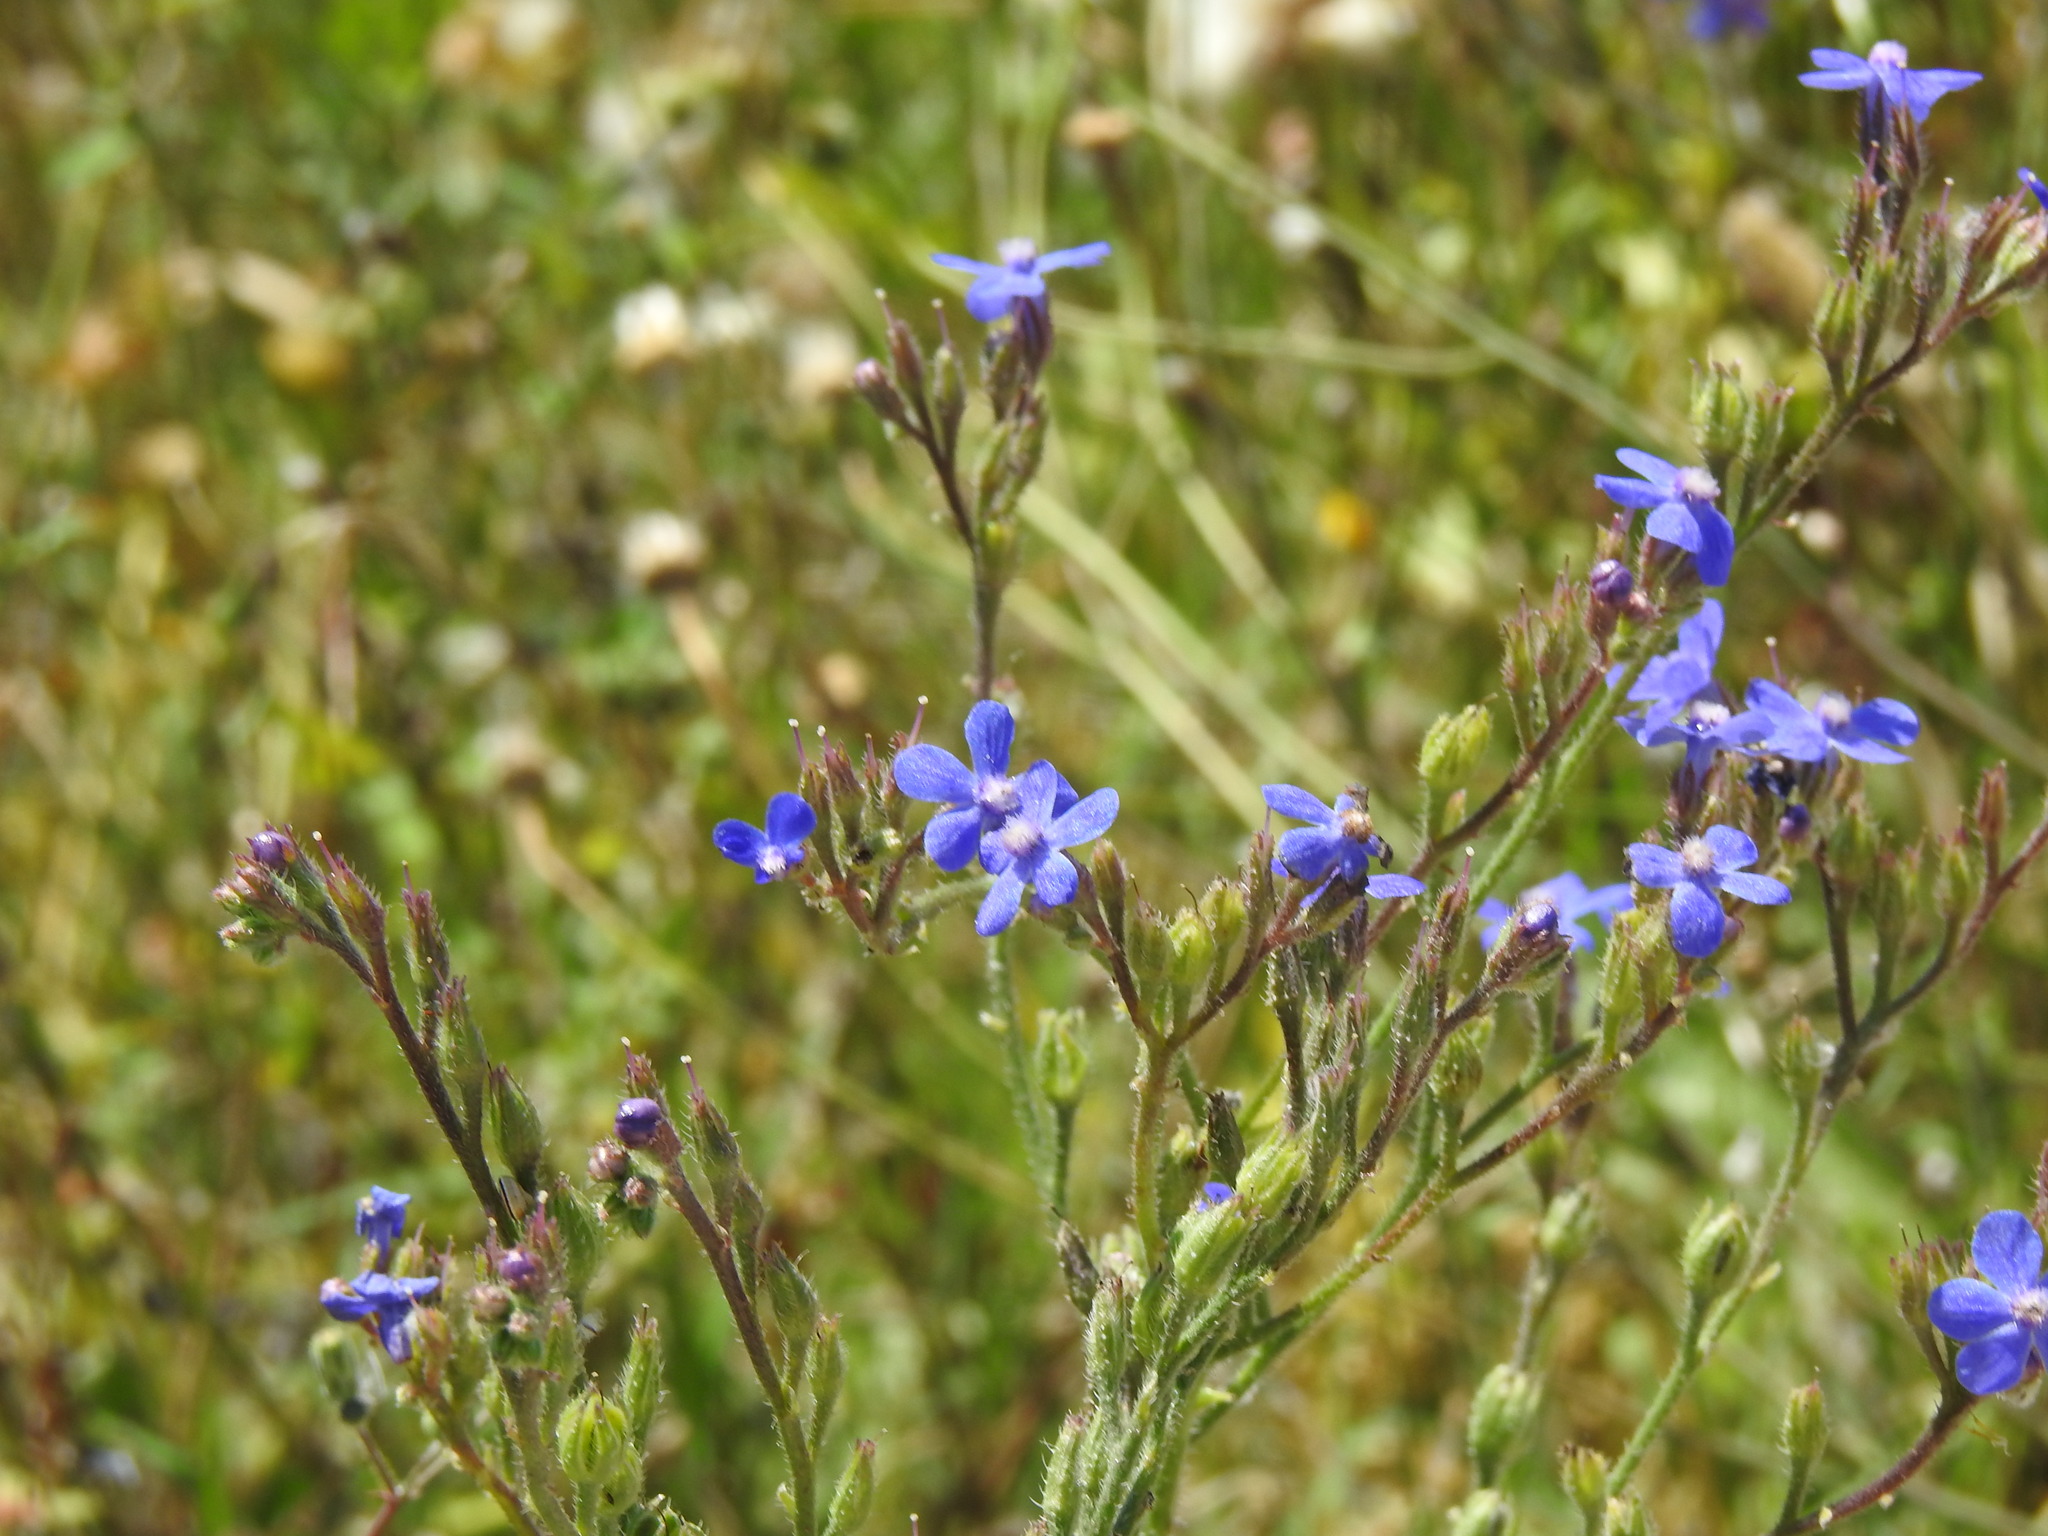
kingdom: Plantae
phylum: Tracheophyta
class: Magnoliopsida
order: Boraginales
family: Boraginaceae
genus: Anchusa
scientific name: Anchusa azurea
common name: Garden anchusa
